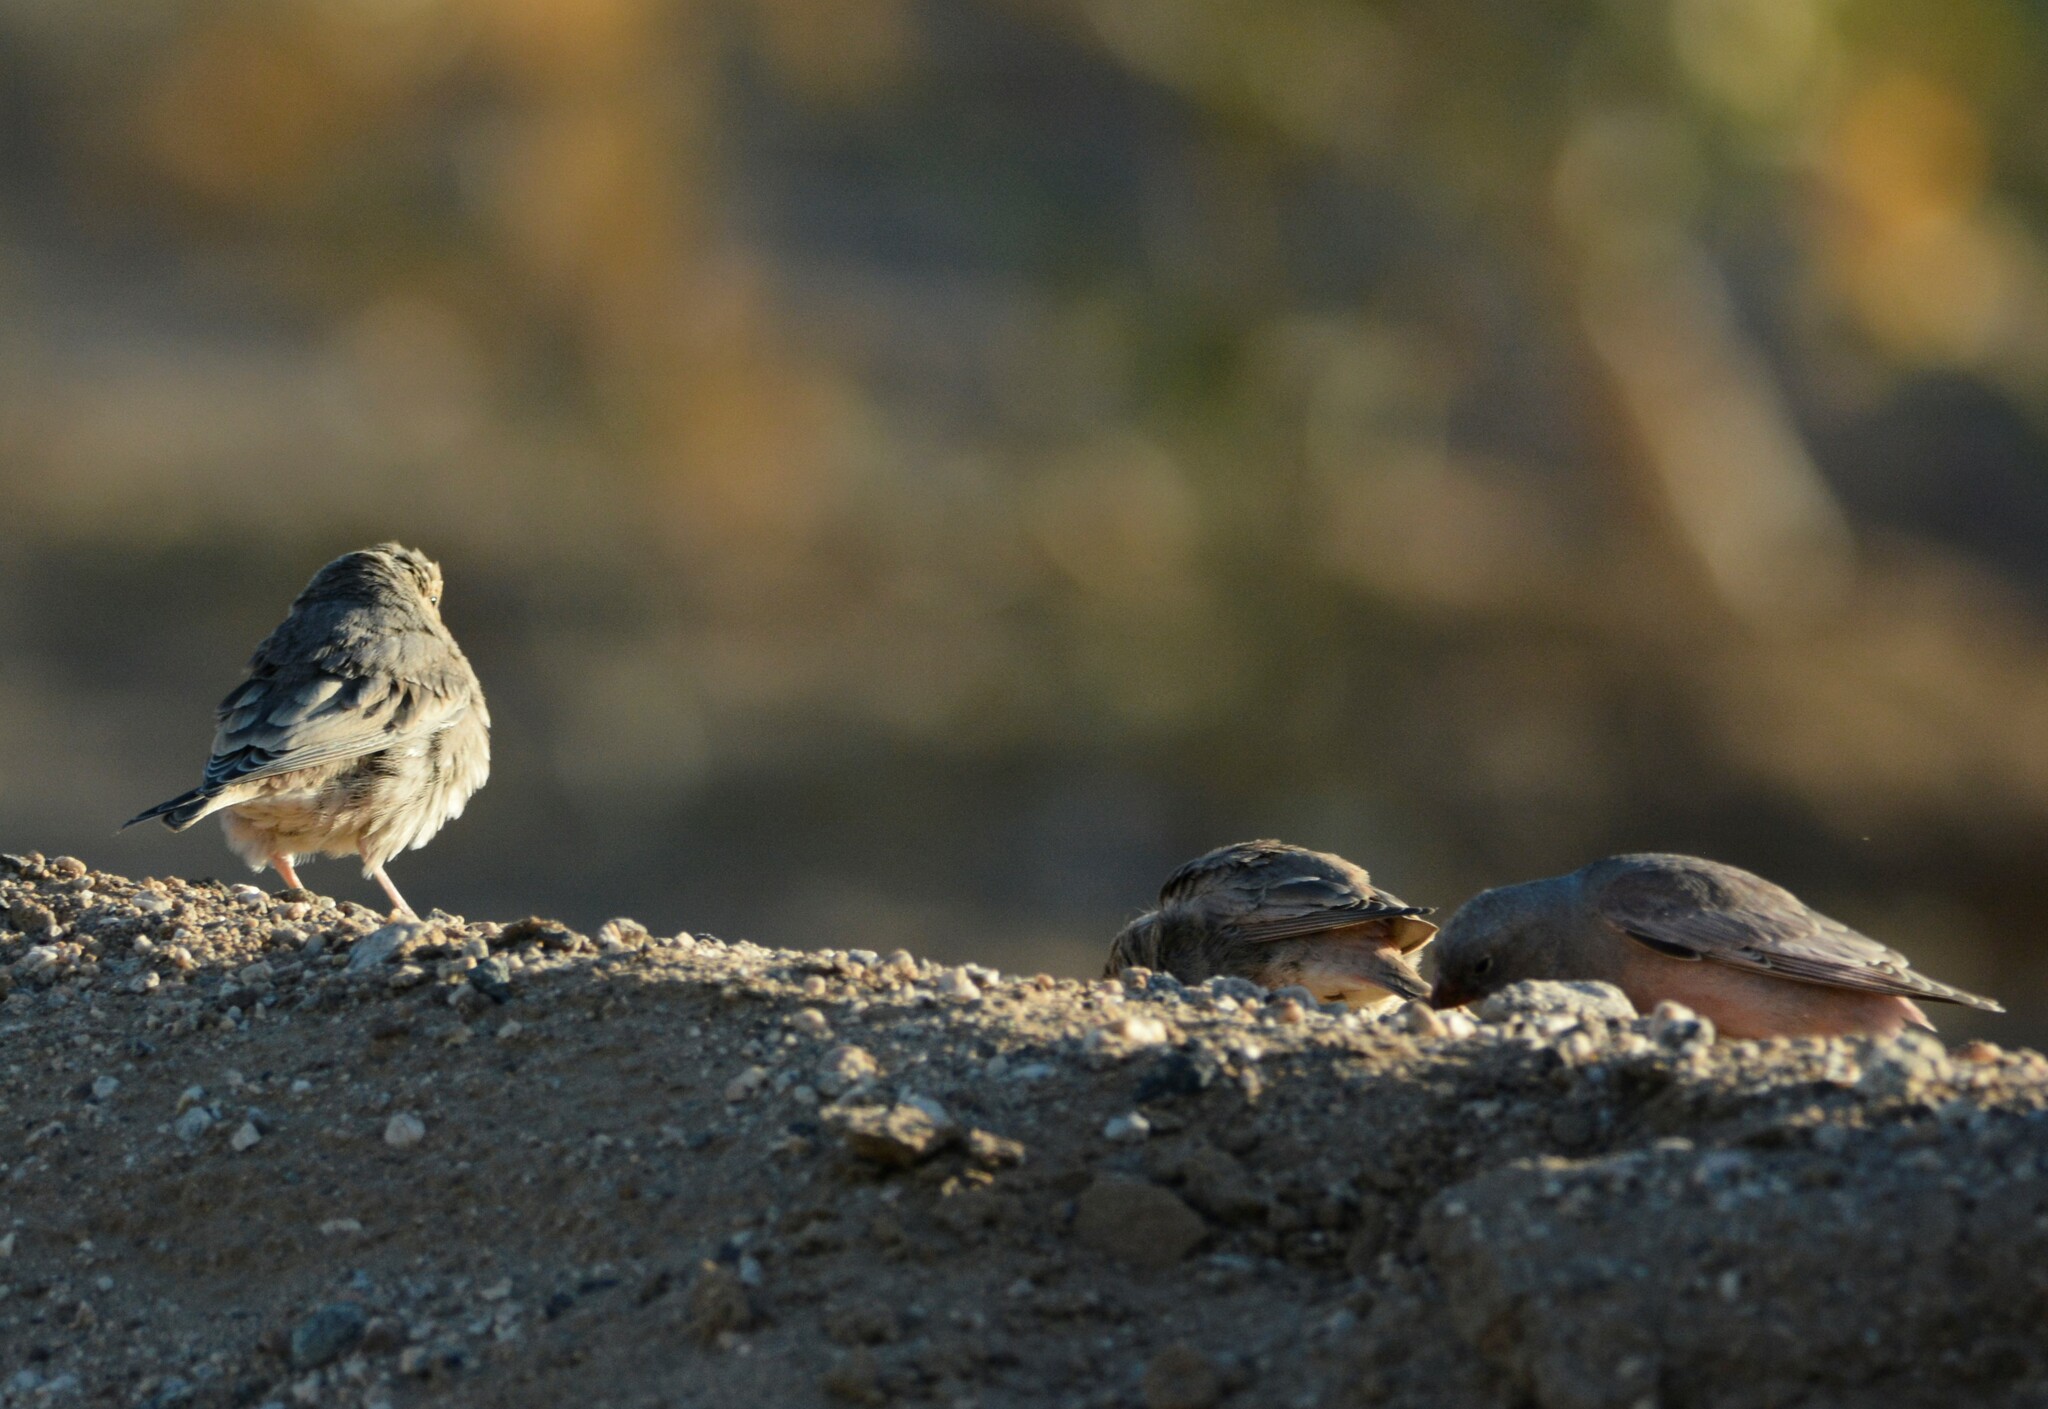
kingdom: Animalia
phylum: Chordata
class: Aves
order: Passeriformes
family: Fringillidae
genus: Bucanetes
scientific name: Bucanetes githagineus
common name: Trumpeter finch
